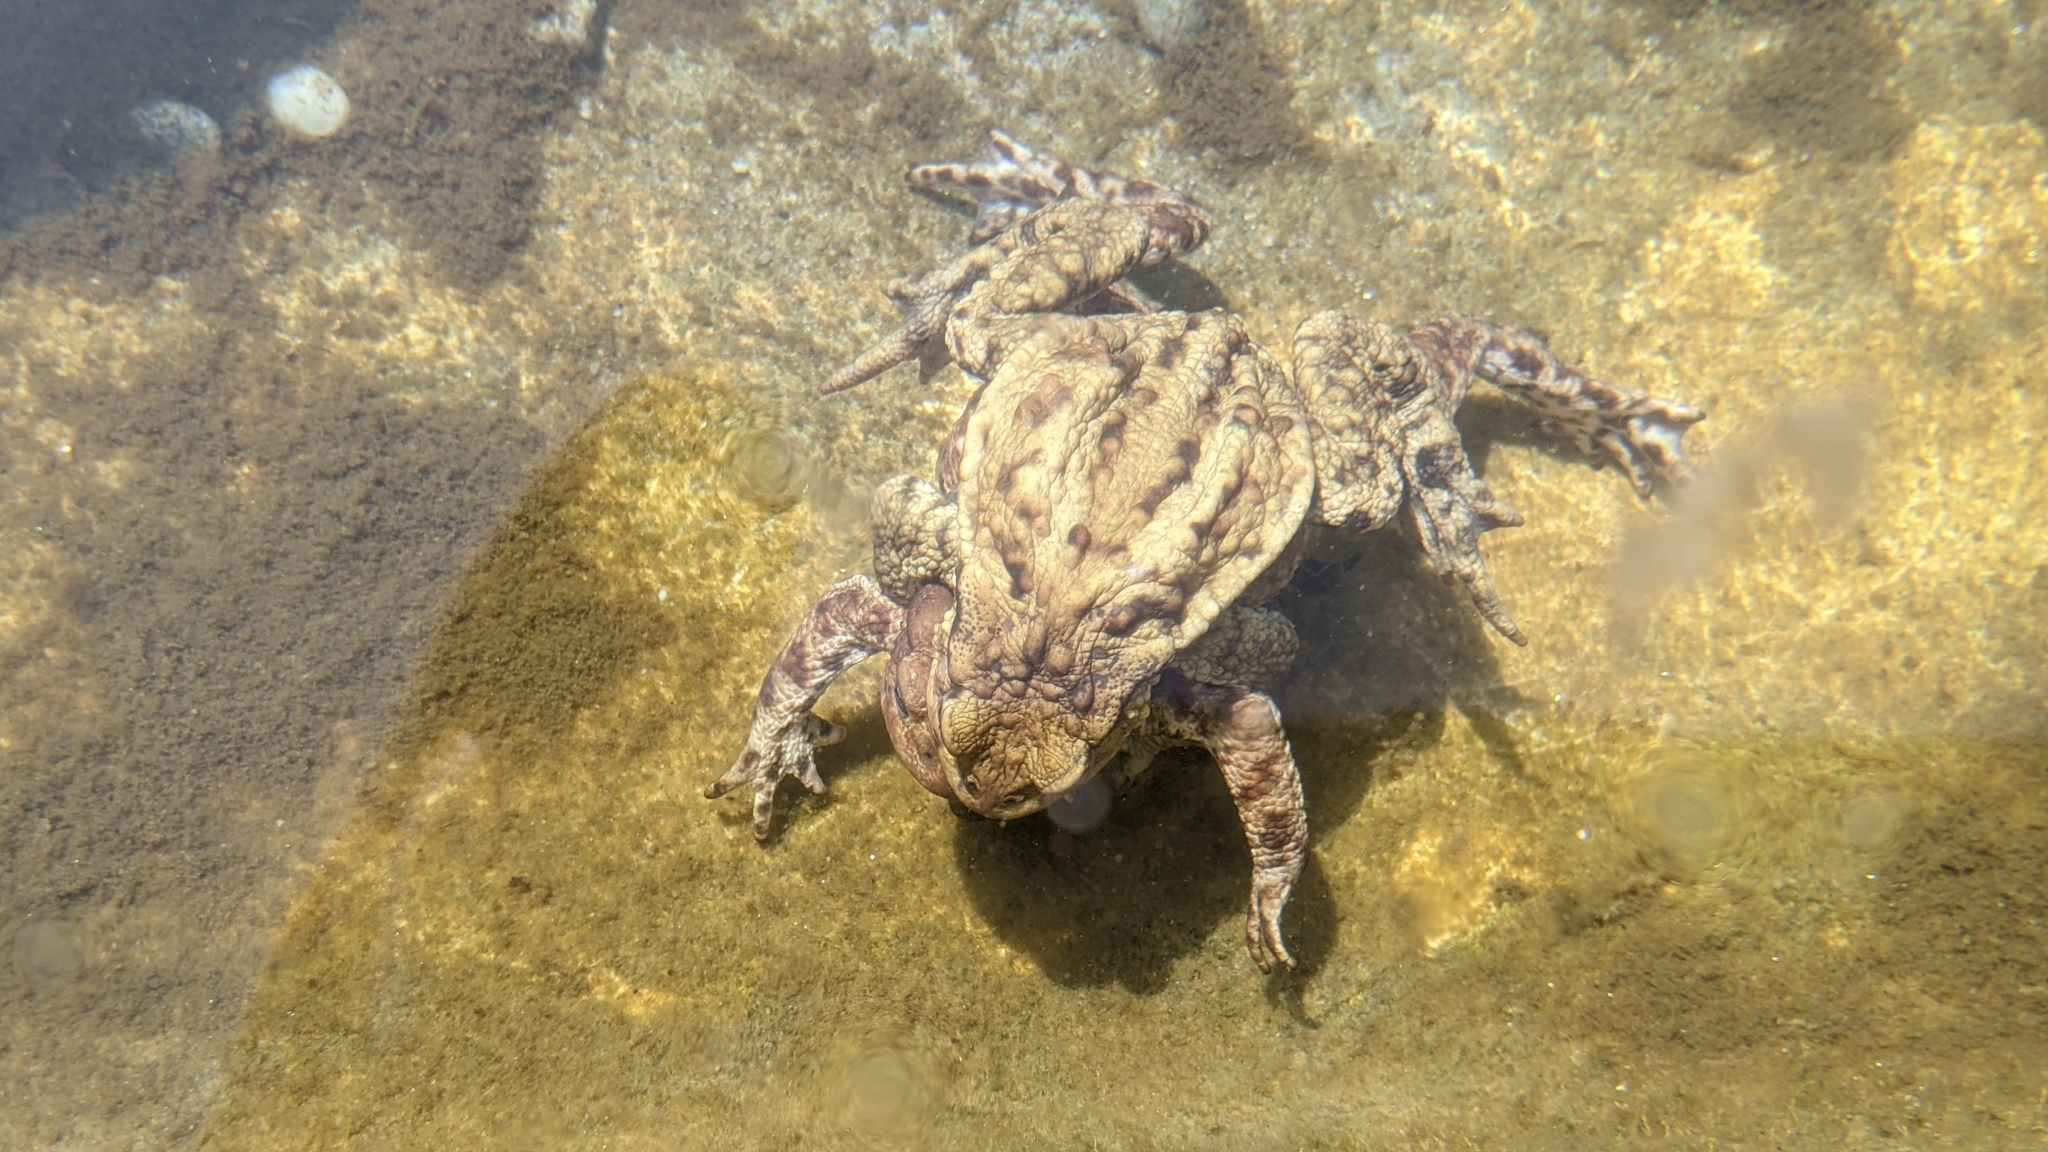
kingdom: Animalia
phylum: Chordata
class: Amphibia
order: Anura
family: Bufonidae
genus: Bufo
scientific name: Bufo bufo
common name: Common toad
